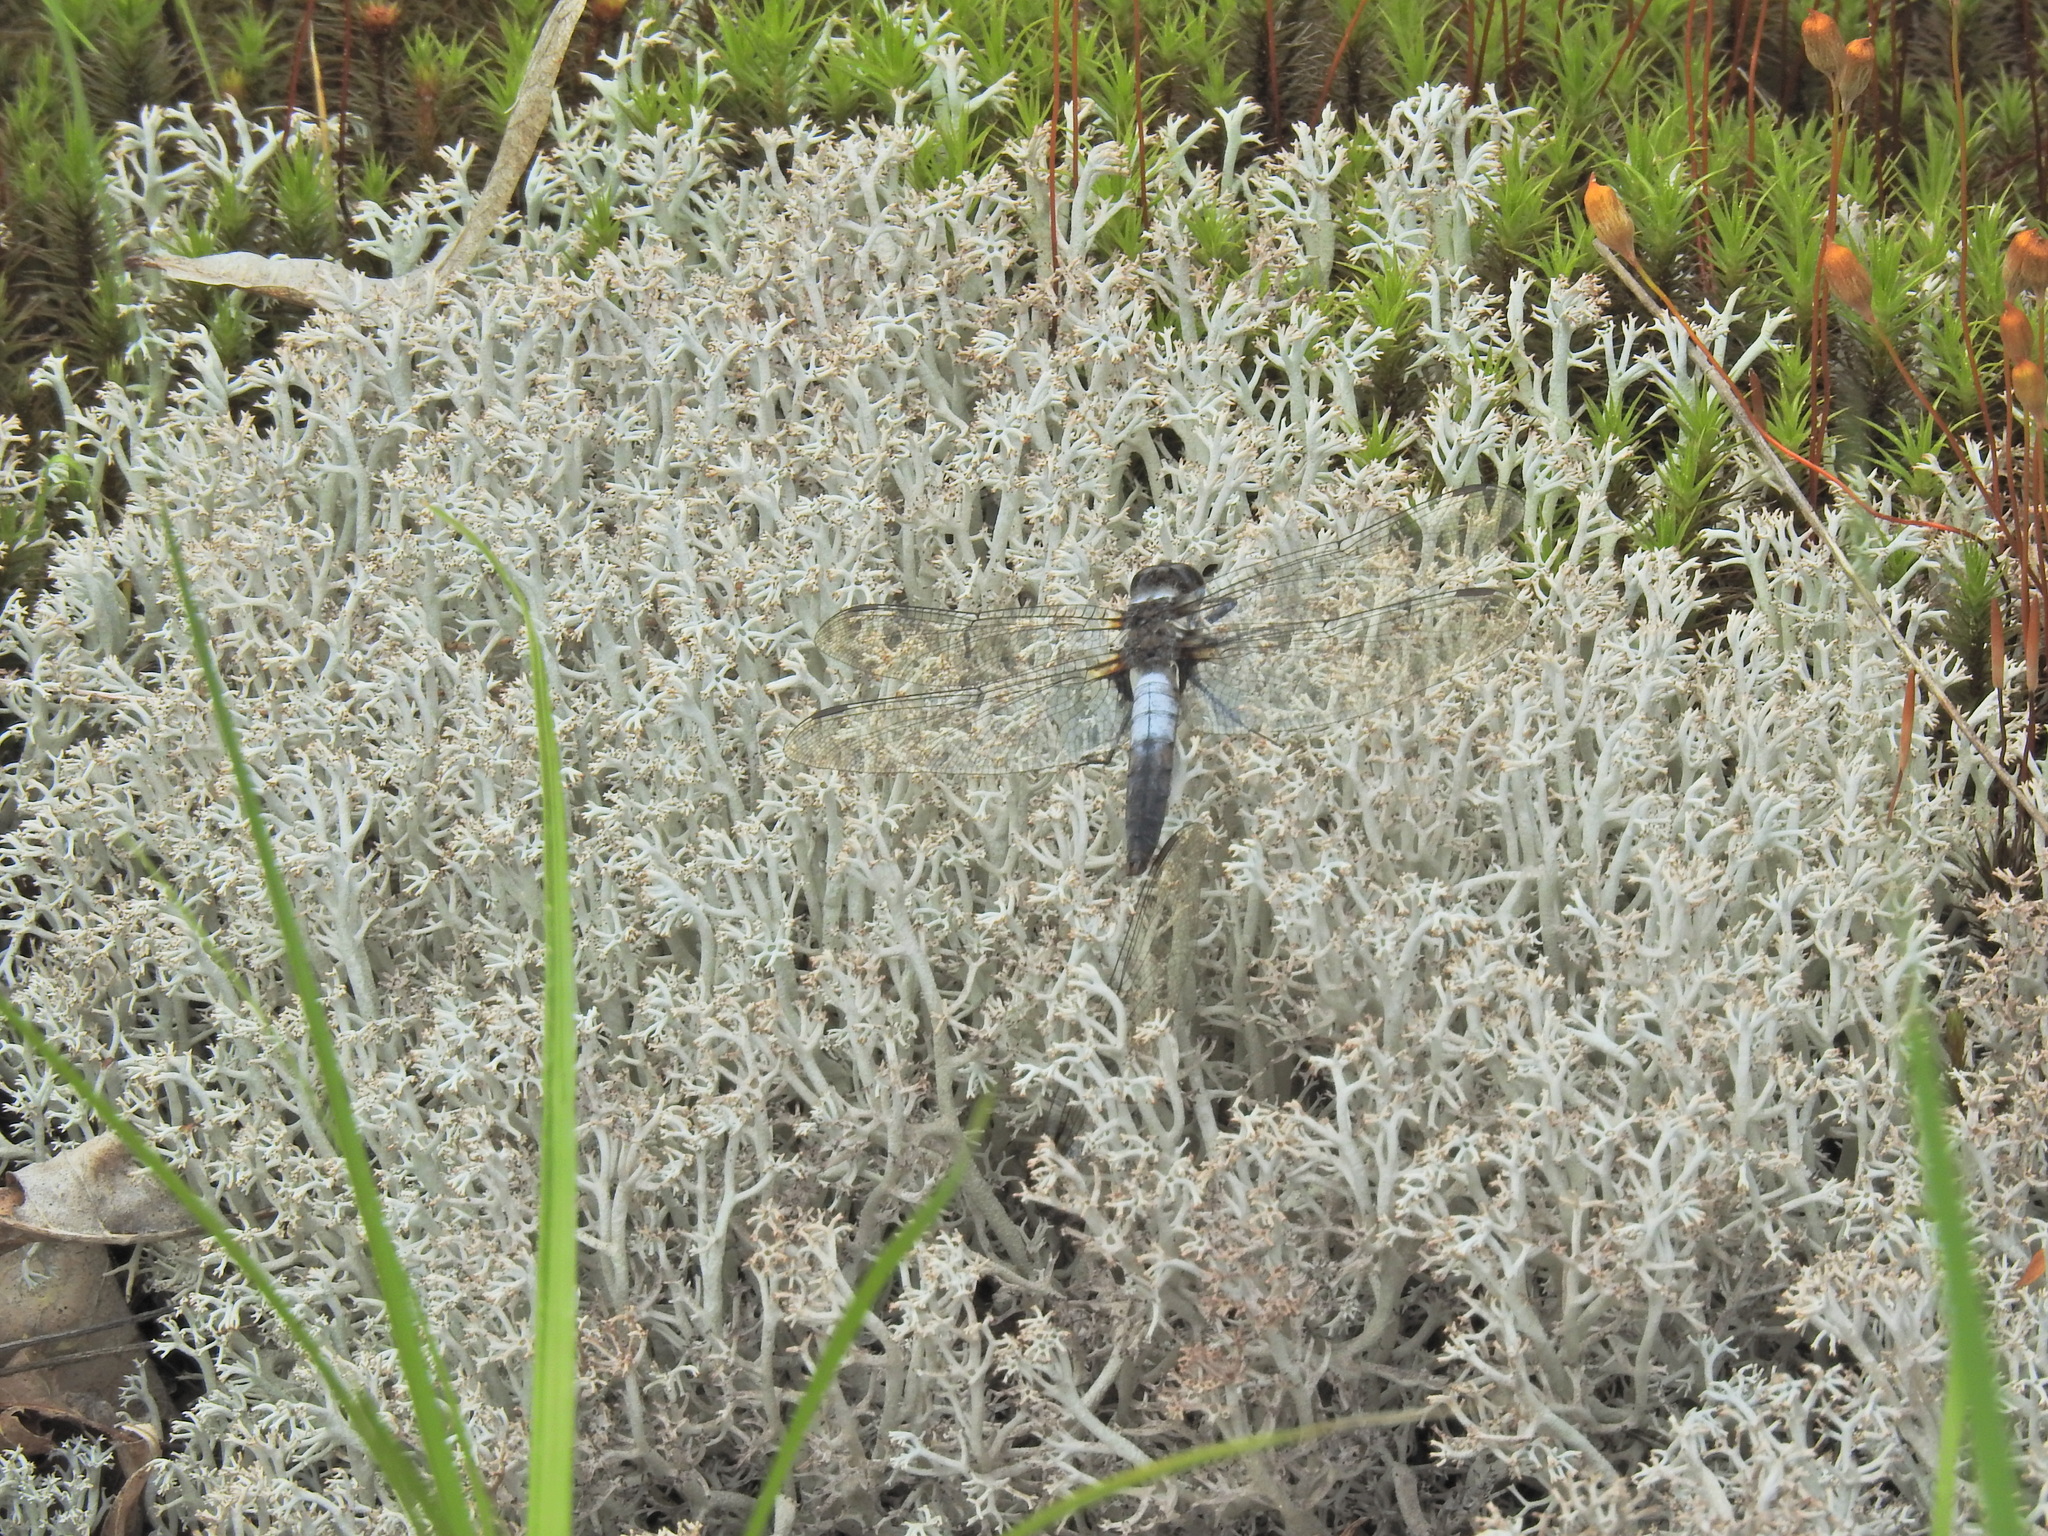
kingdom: Animalia
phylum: Arthropoda
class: Insecta
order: Odonata
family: Libellulidae
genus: Ladona
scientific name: Ladona julia
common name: Chalk-fronted corporal
